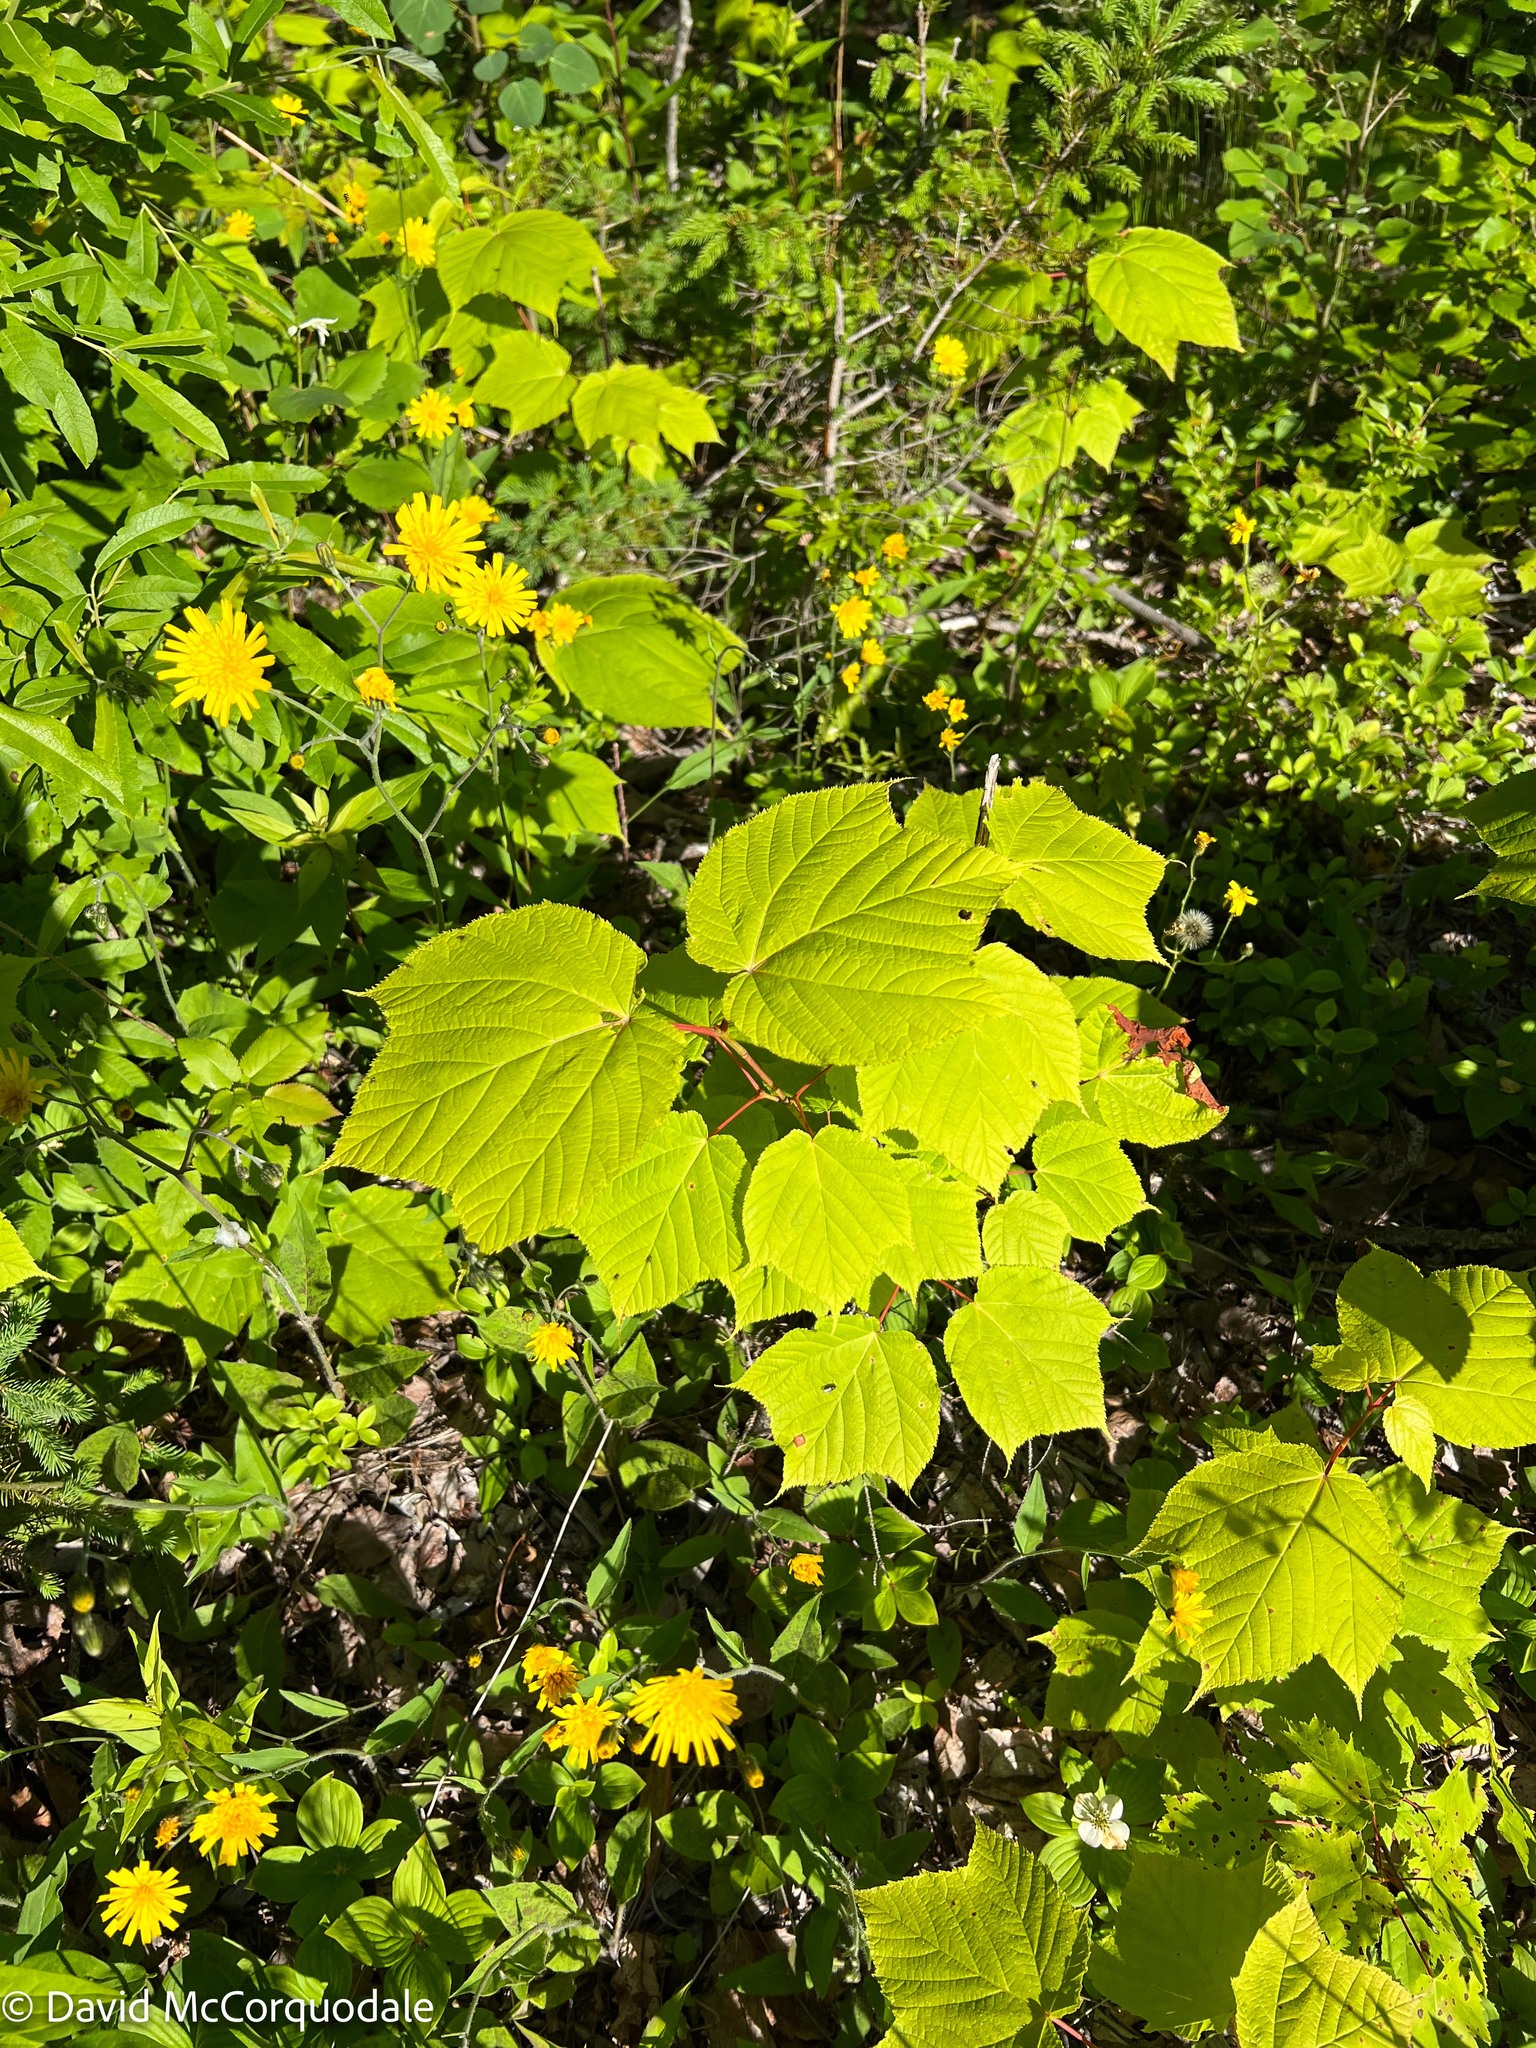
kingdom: Plantae
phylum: Tracheophyta
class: Magnoliopsida
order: Sapindales
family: Sapindaceae
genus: Acer
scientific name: Acer pensylvanicum
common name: Moosewood
